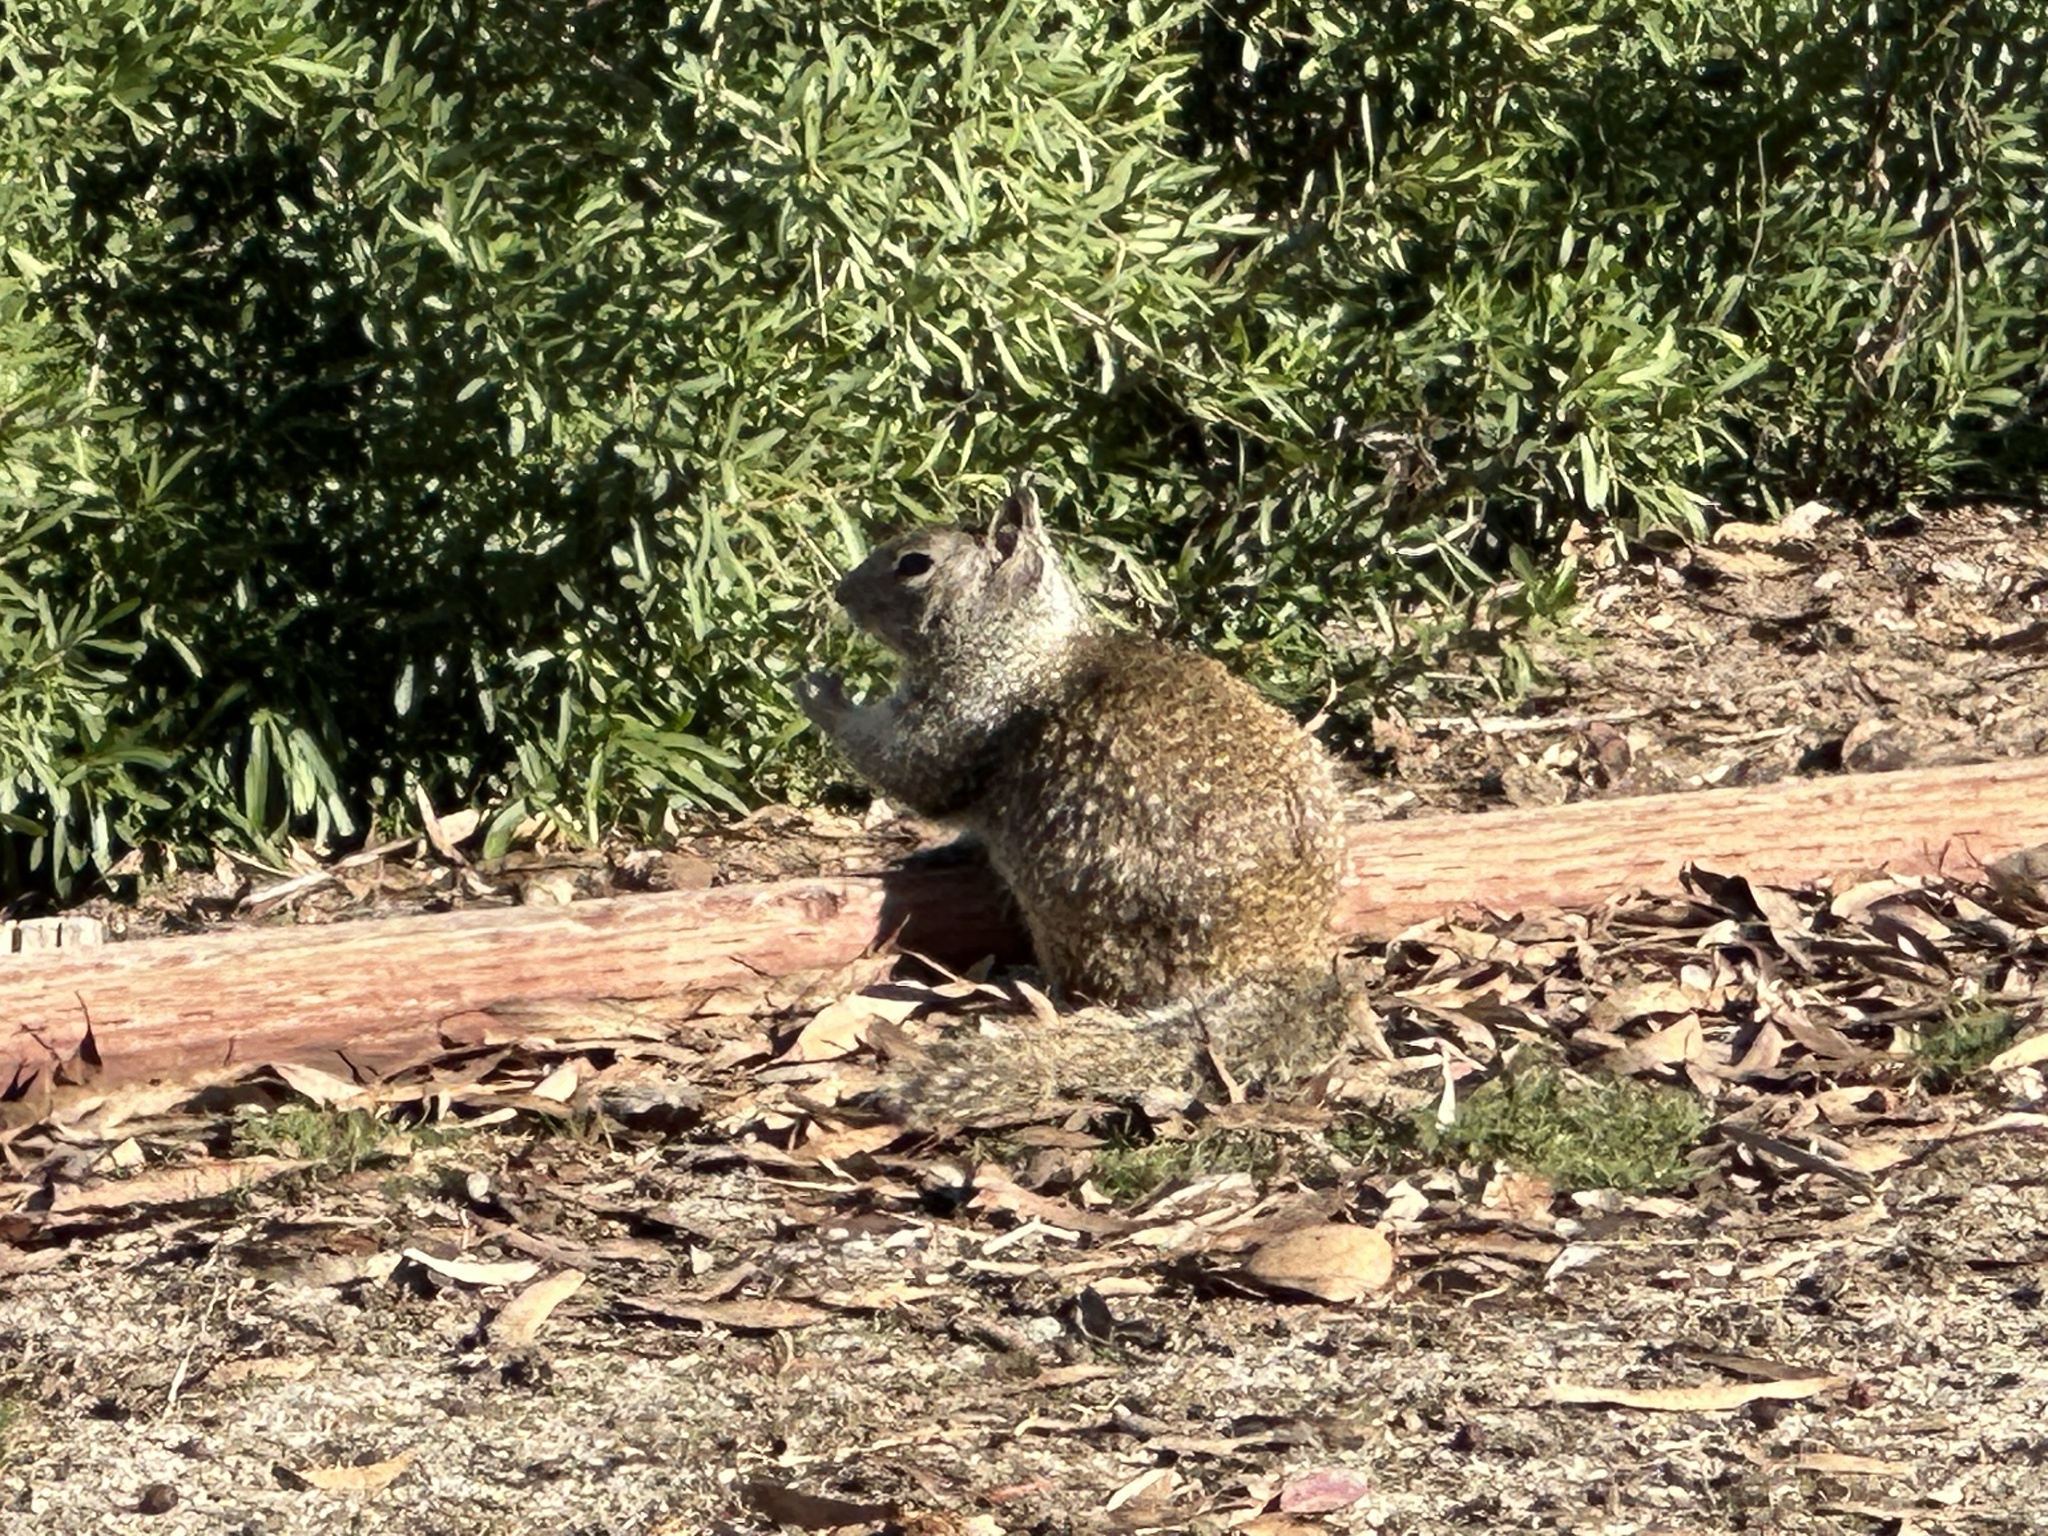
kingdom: Animalia
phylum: Chordata
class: Mammalia
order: Rodentia
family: Sciuridae
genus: Otospermophilus
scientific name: Otospermophilus beecheyi
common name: California ground squirrel
